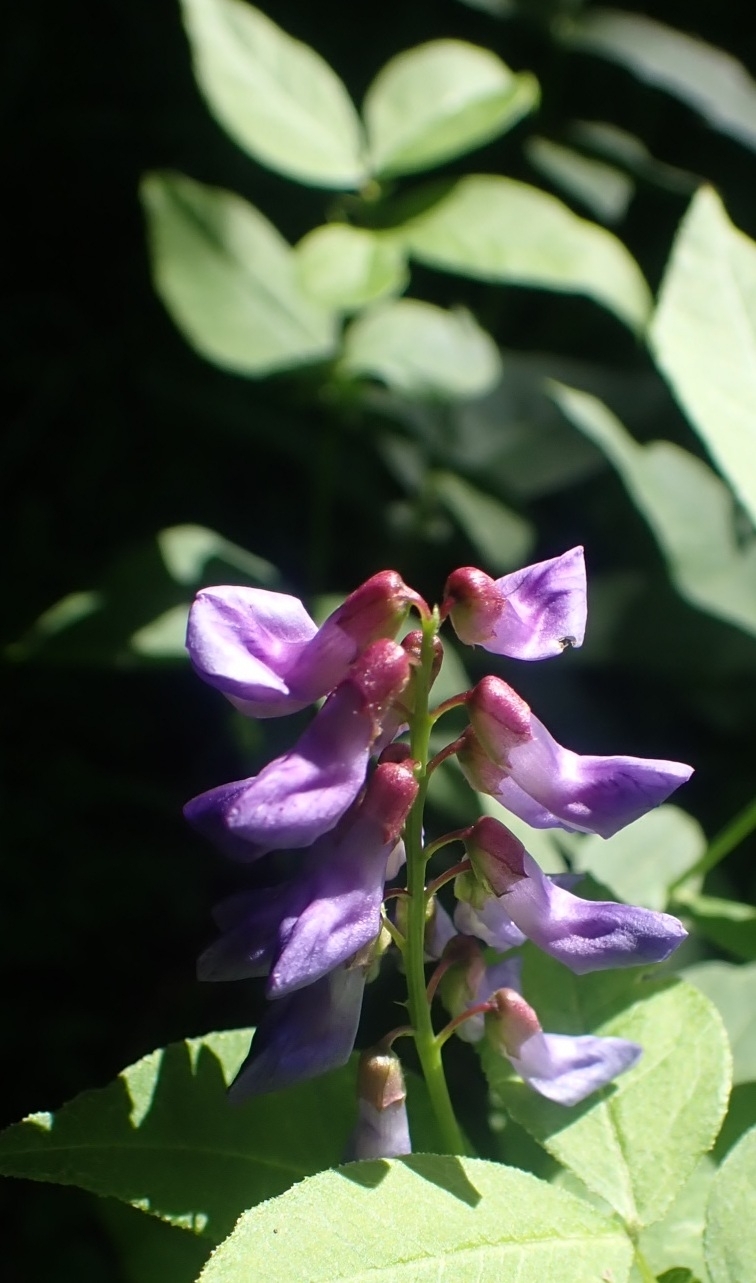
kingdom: Plantae
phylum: Tracheophyta
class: Magnoliopsida
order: Fabales
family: Fabaceae
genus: Vicia
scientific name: Vicia unijuga
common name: Two-leaf vetch
